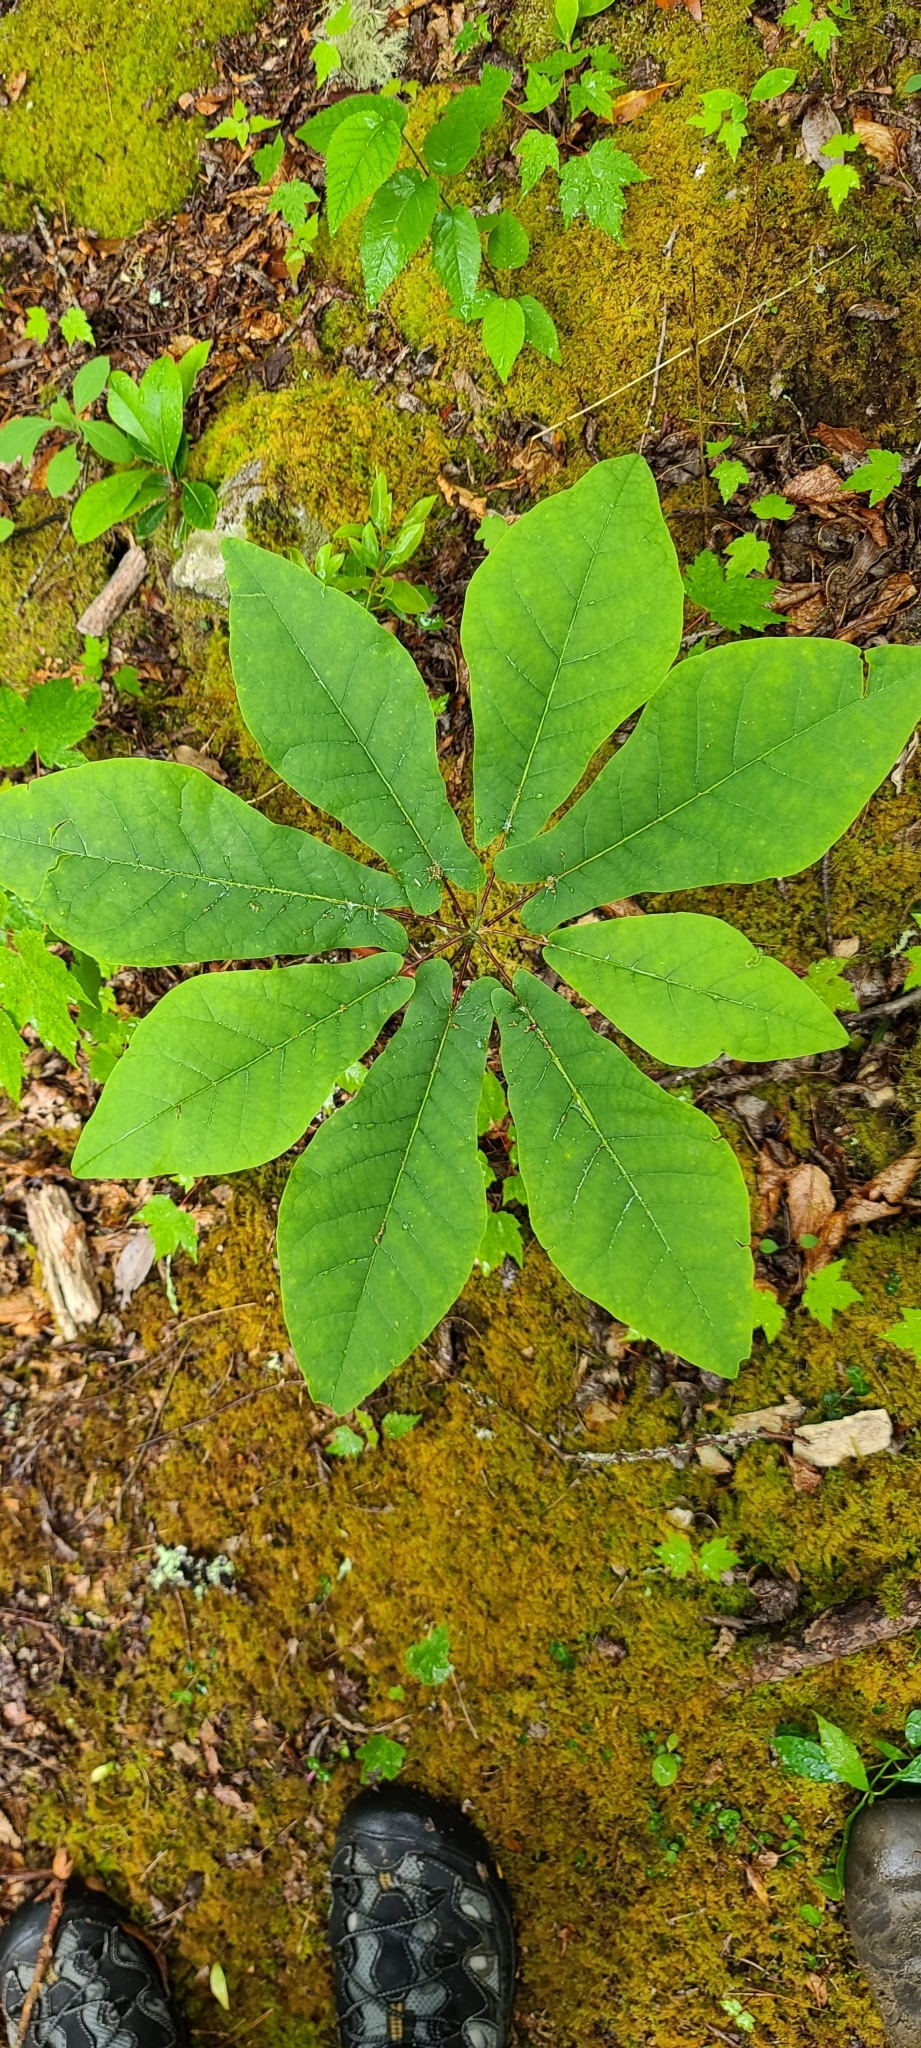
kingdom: Plantae
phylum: Tracheophyta
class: Magnoliopsida
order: Magnoliales
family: Magnoliaceae
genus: Magnolia
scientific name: Magnolia fraseri
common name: Fraser's magnolia
